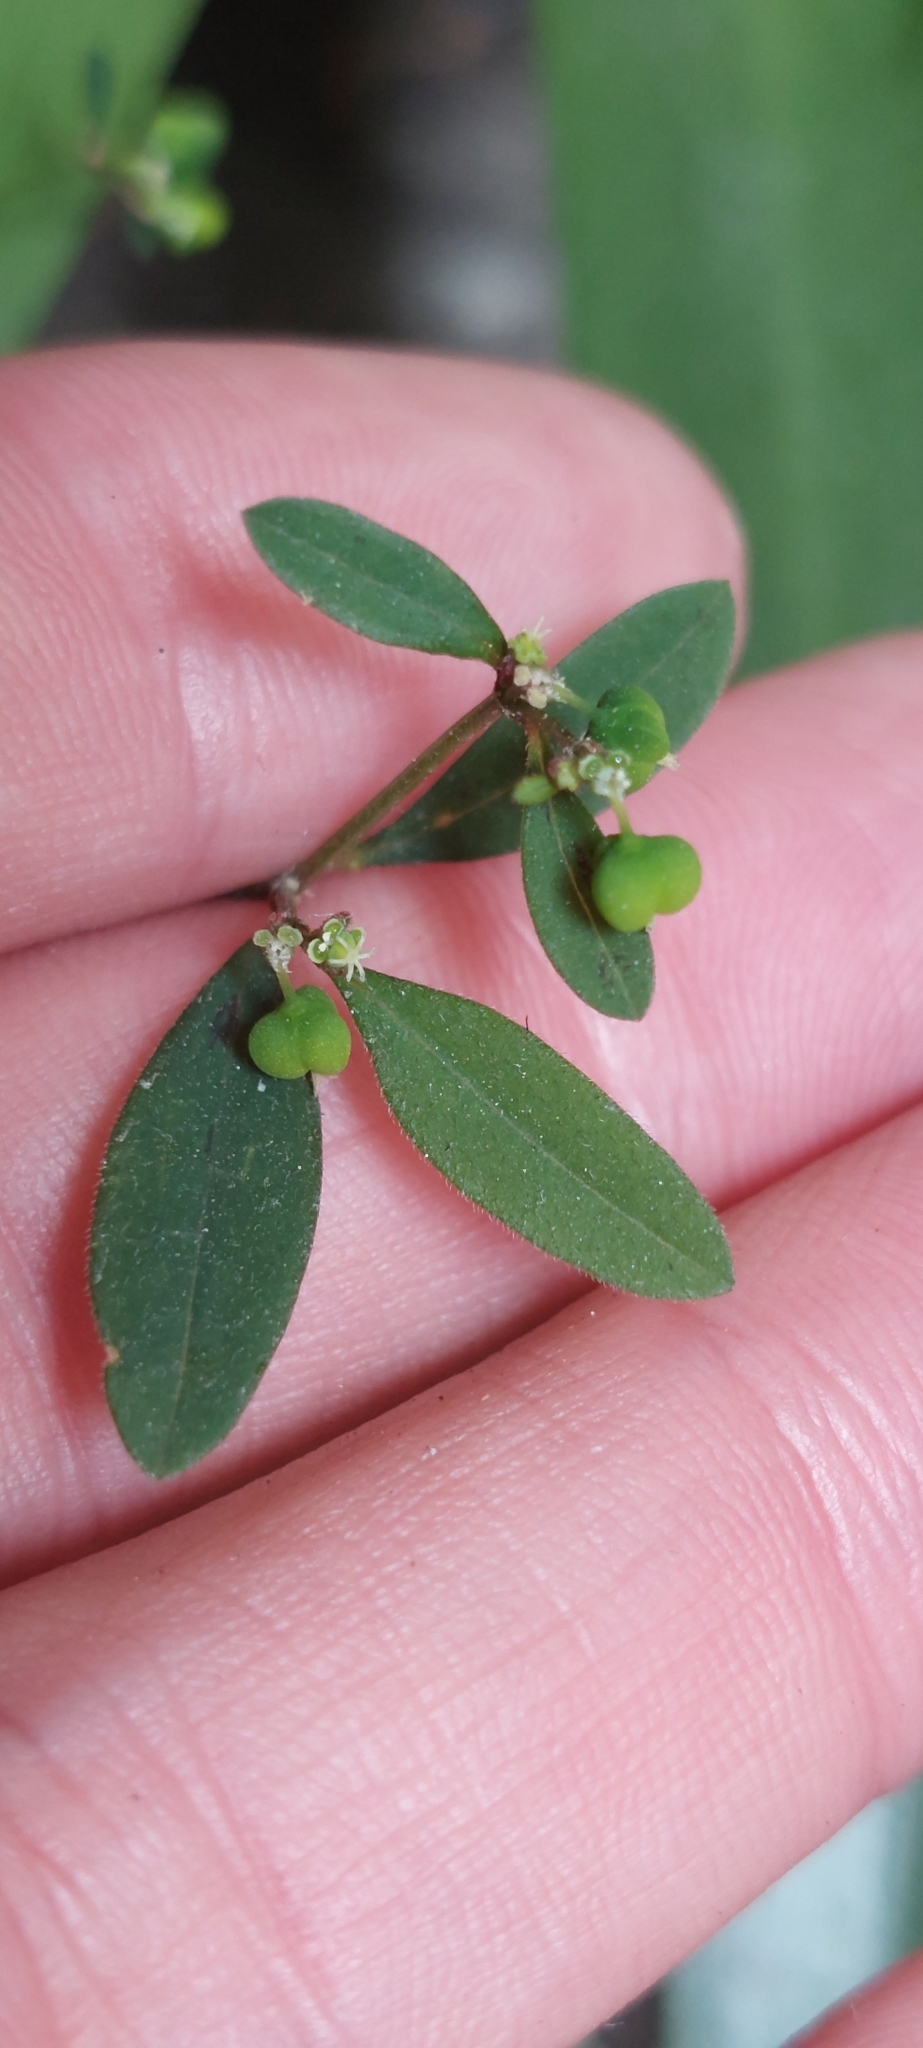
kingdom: Plantae
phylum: Tracheophyta
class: Magnoliopsida
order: Malpighiales
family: Euphorbiaceae
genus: Euphorbia
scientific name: Euphorbia graminea
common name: Grassleaf spurge
